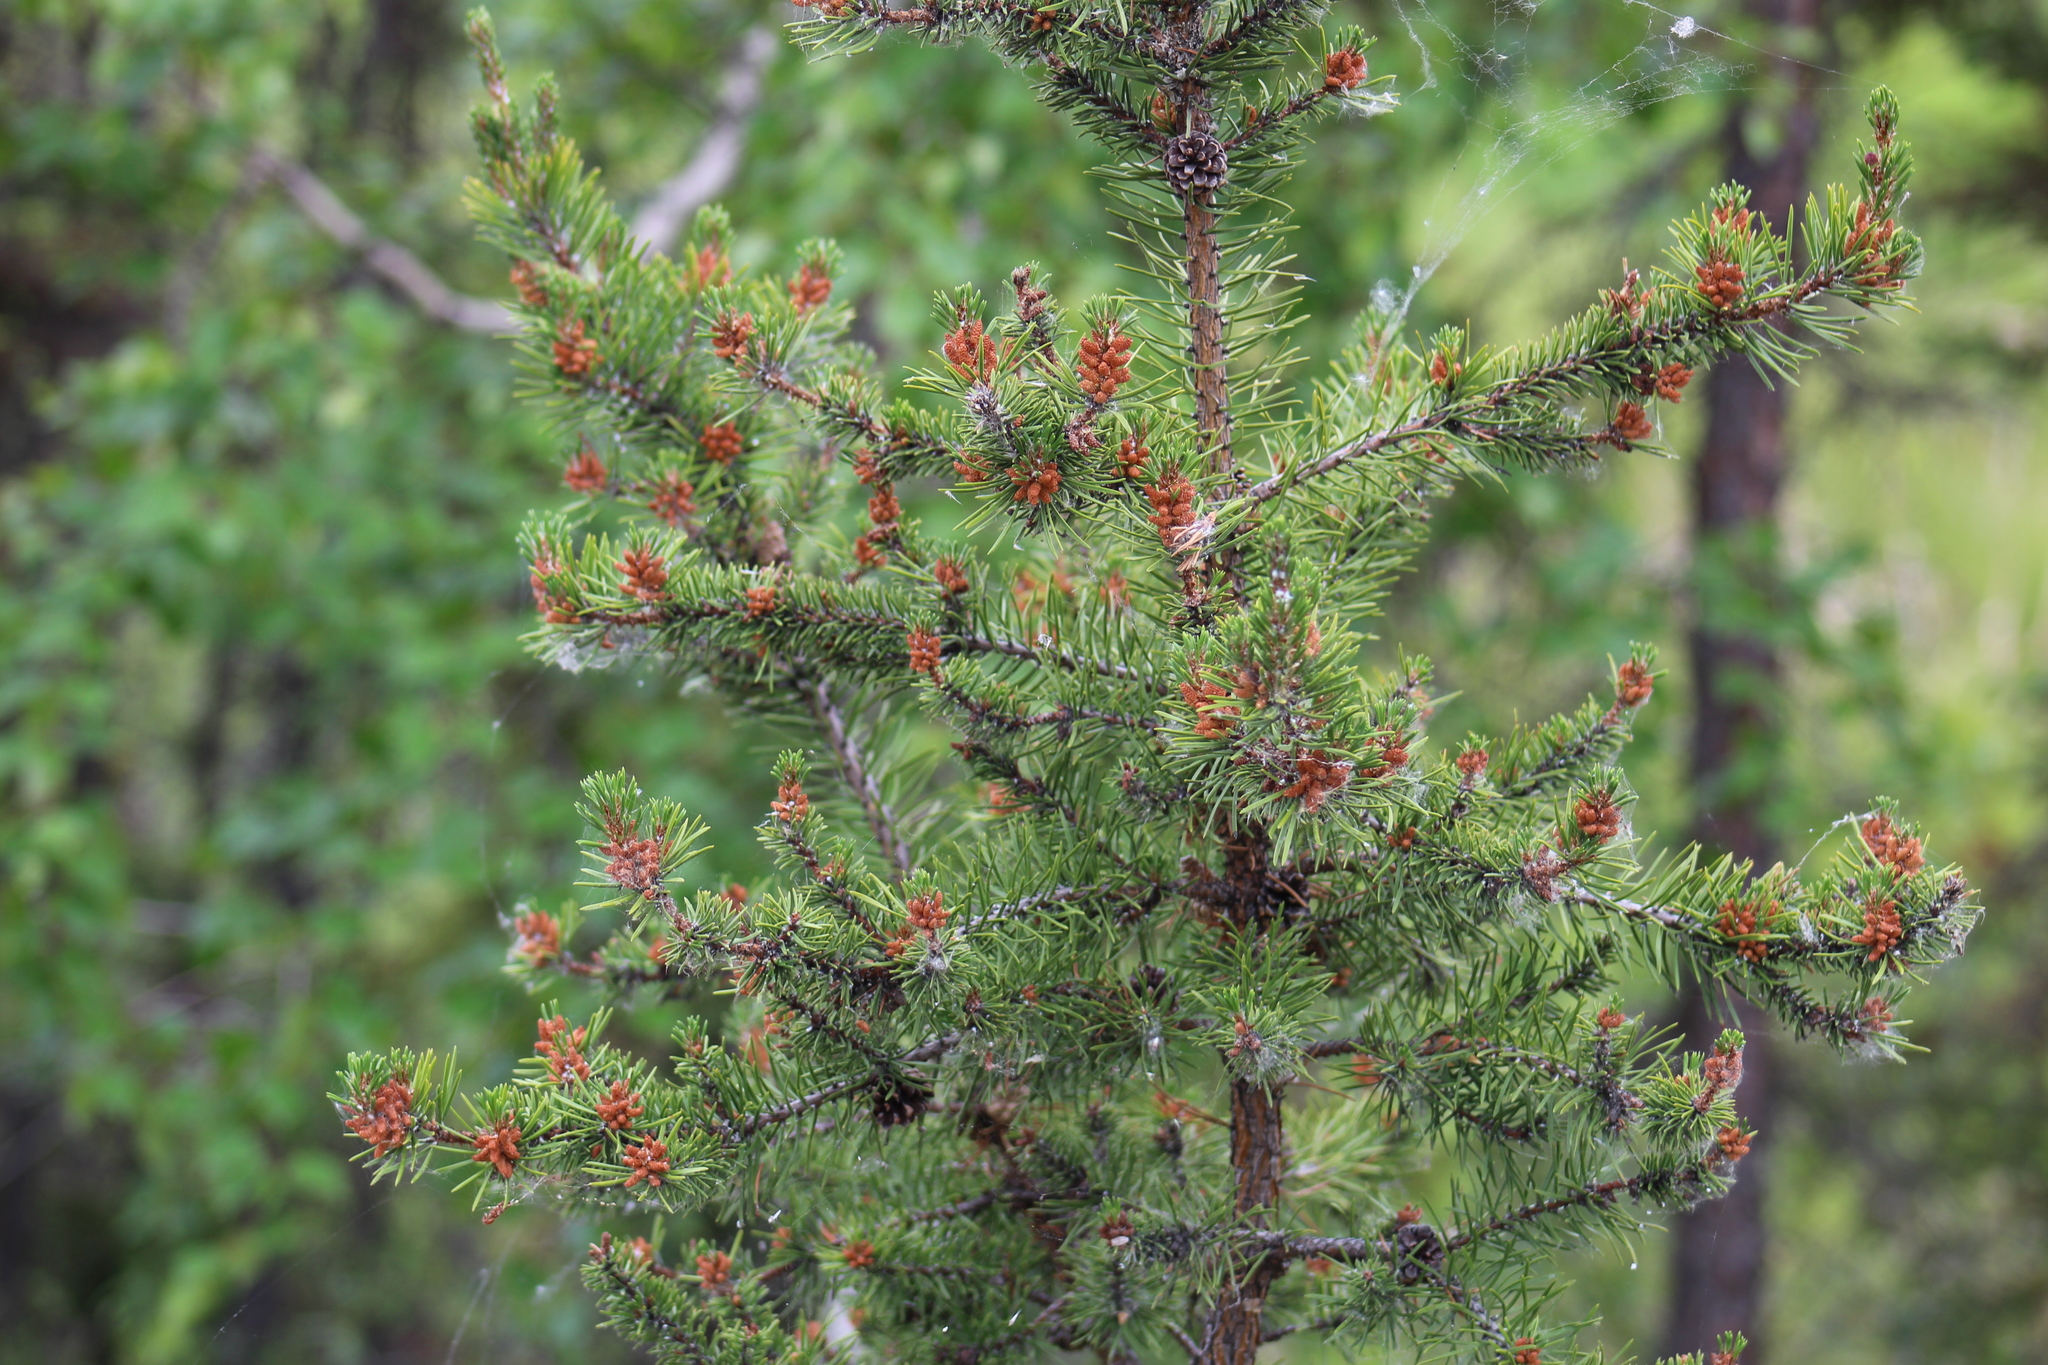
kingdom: Plantae
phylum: Tracheophyta
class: Pinopsida
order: Pinales
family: Pinaceae
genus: Pinus
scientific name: Pinus banksiana
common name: Jack pine
